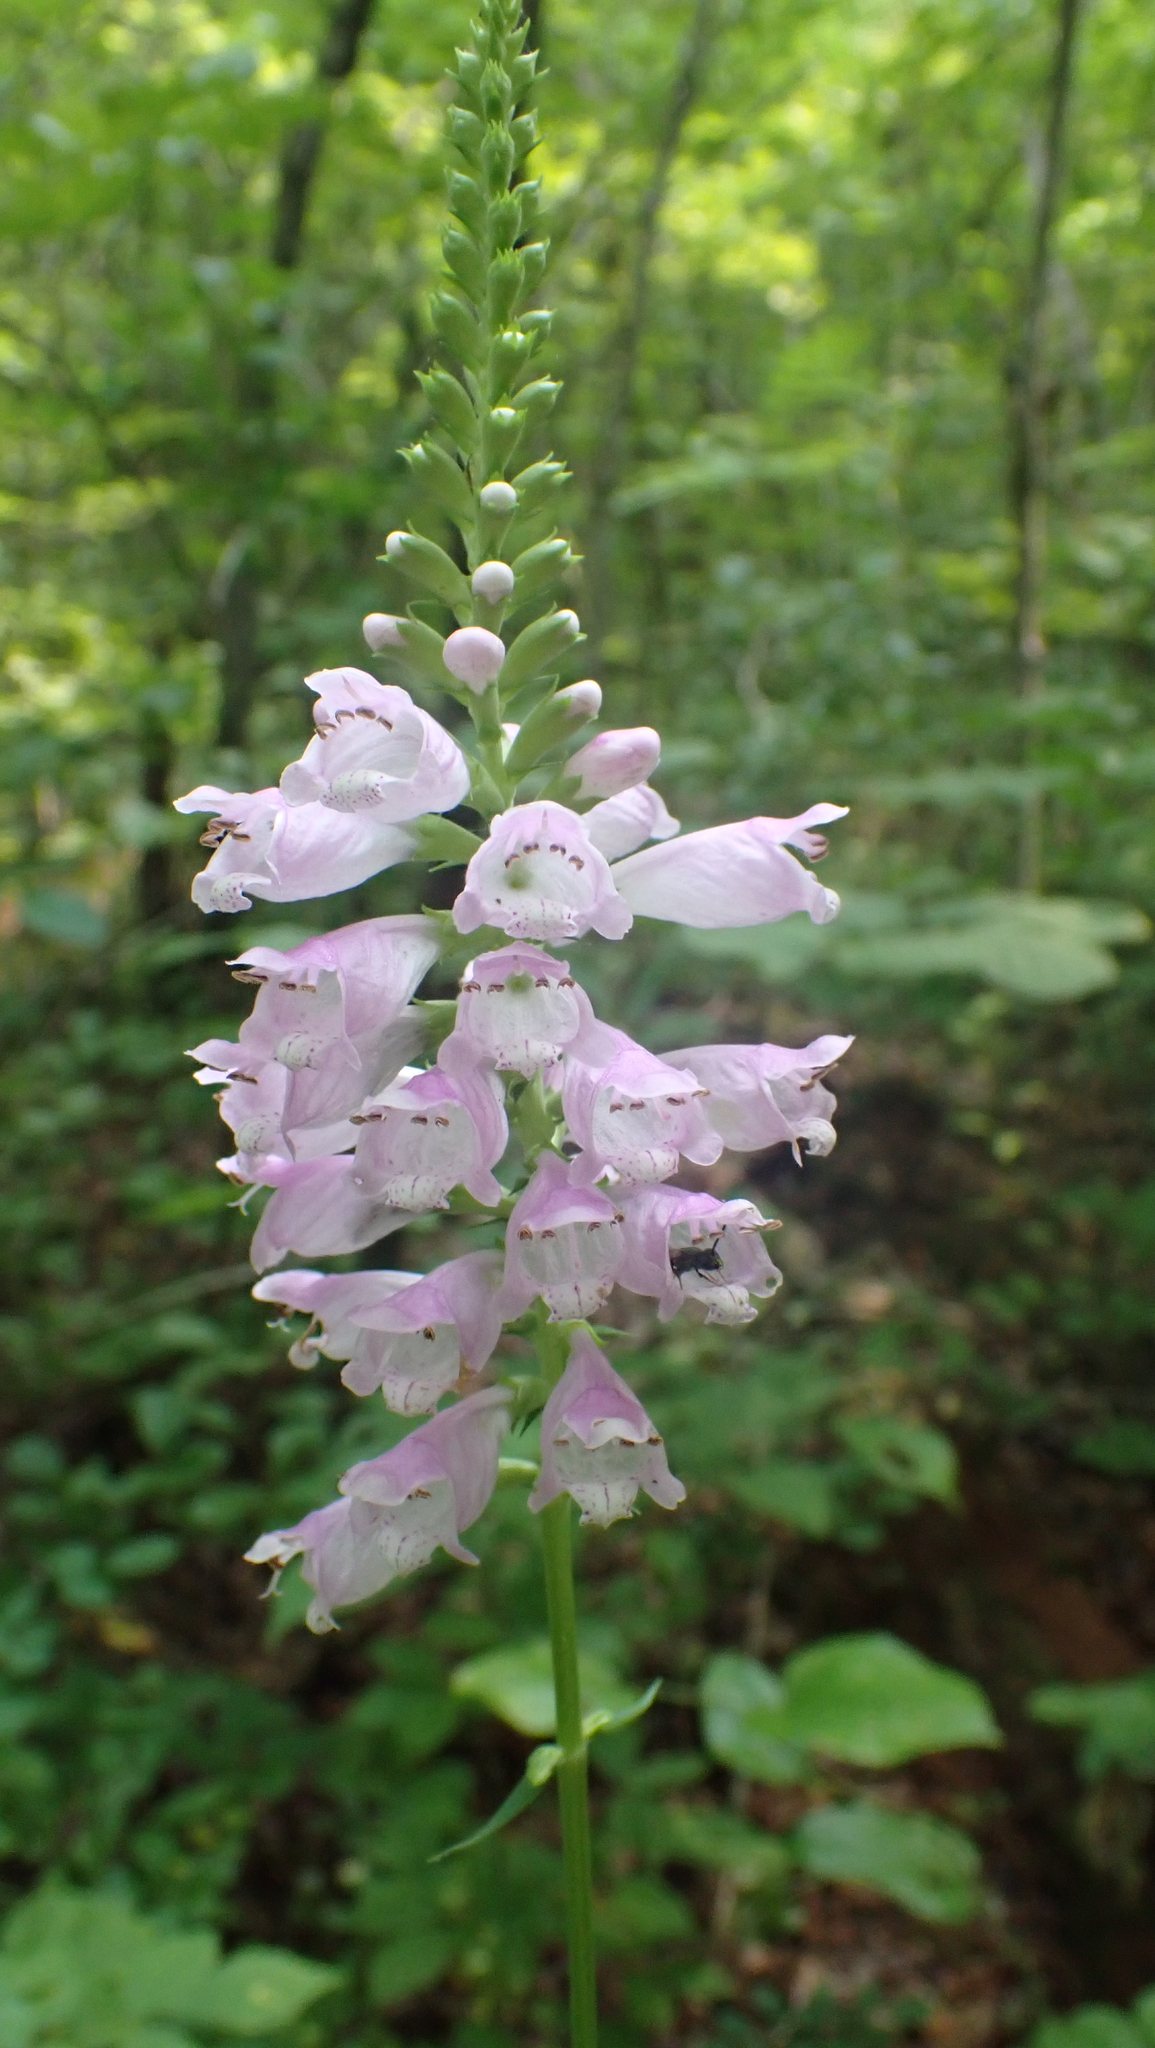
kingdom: Plantae
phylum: Tracheophyta
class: Magnoliopsida
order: Lamiales
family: Lamiaceae
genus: Physostegia
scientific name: Physostegia virginiana
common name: Obedient-plant
